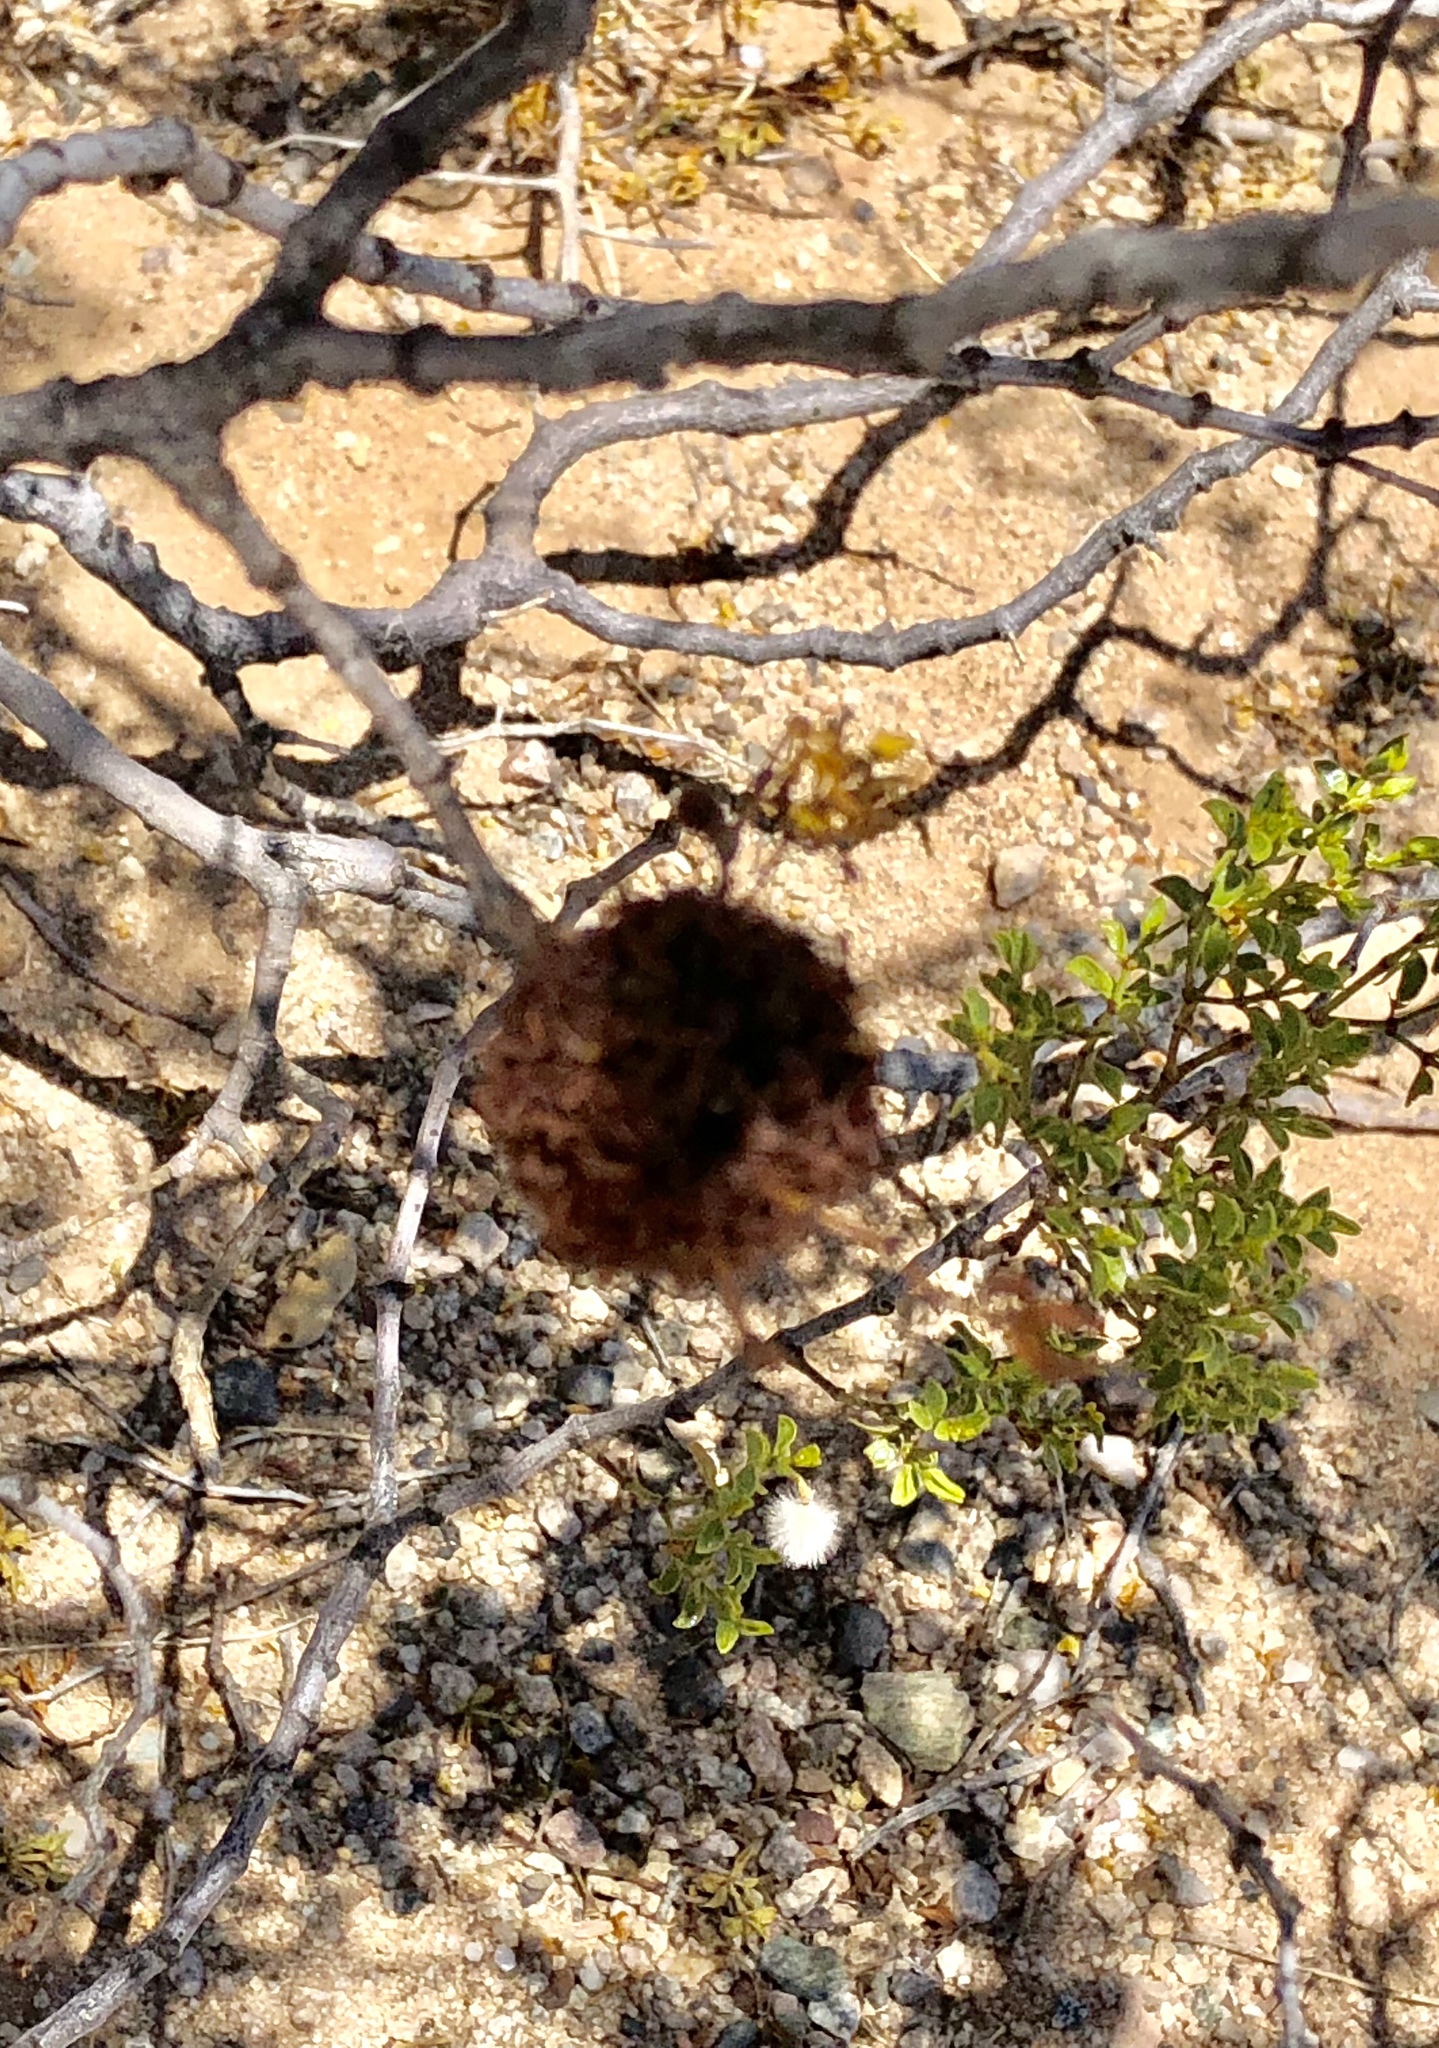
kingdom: Animalia
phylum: Arthropoda
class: Insecta
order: Diptera
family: Cecidomyiidae
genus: Asphondylia
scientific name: Asphondylia auripila
